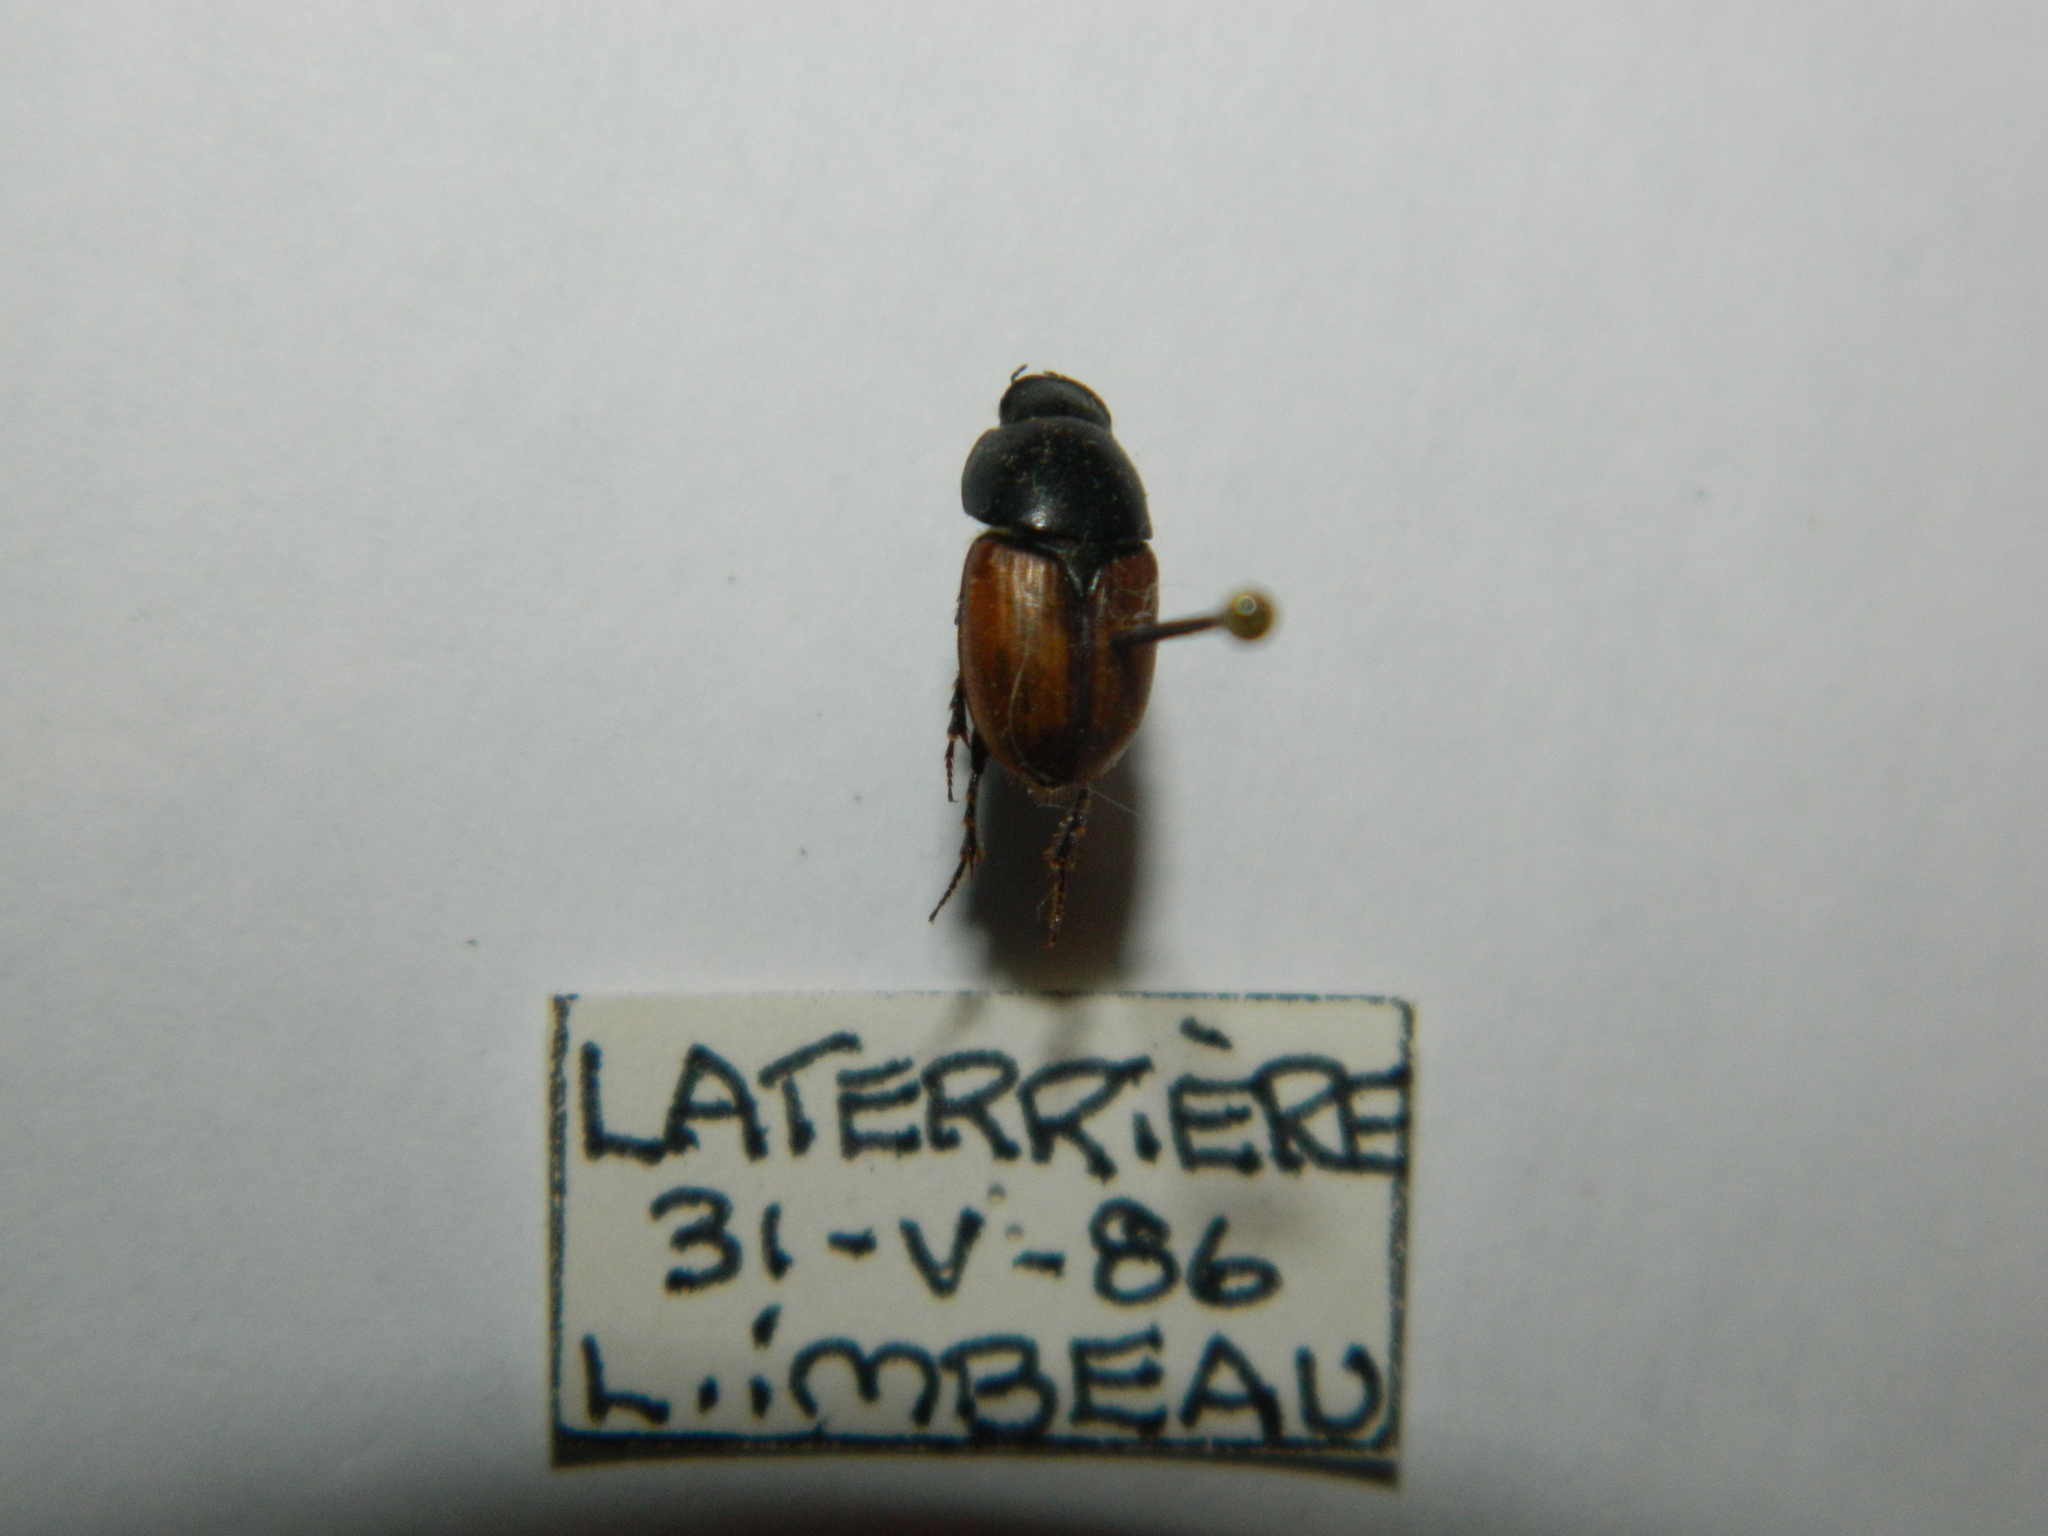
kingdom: Animalia
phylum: Arthropoda
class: Insecta
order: Coleoptera
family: Scarabaeidae
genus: Acrossus
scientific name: Acrossus rubripennis
